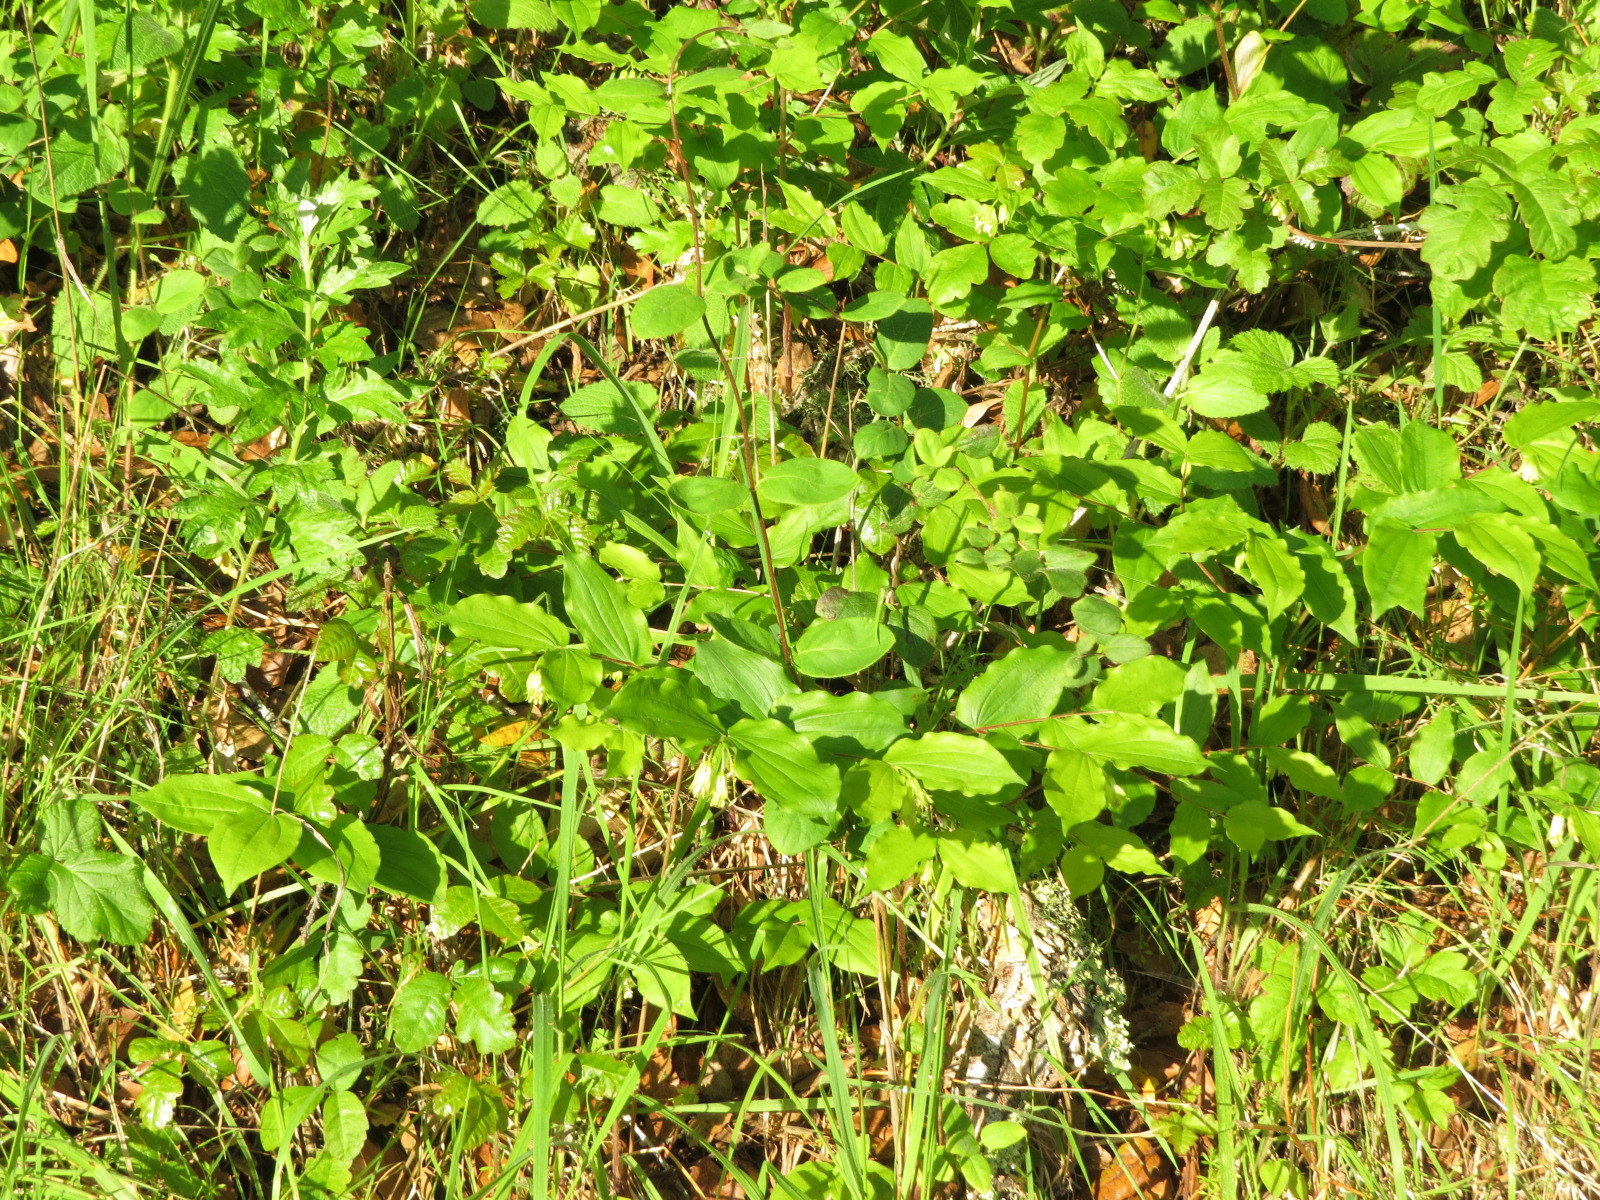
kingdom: Plantae
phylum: Tracheophyta
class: Liliopsida
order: Liliales
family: Liliaceae
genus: Prosartes
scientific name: Prosartes hookeri
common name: Fairy-bells
